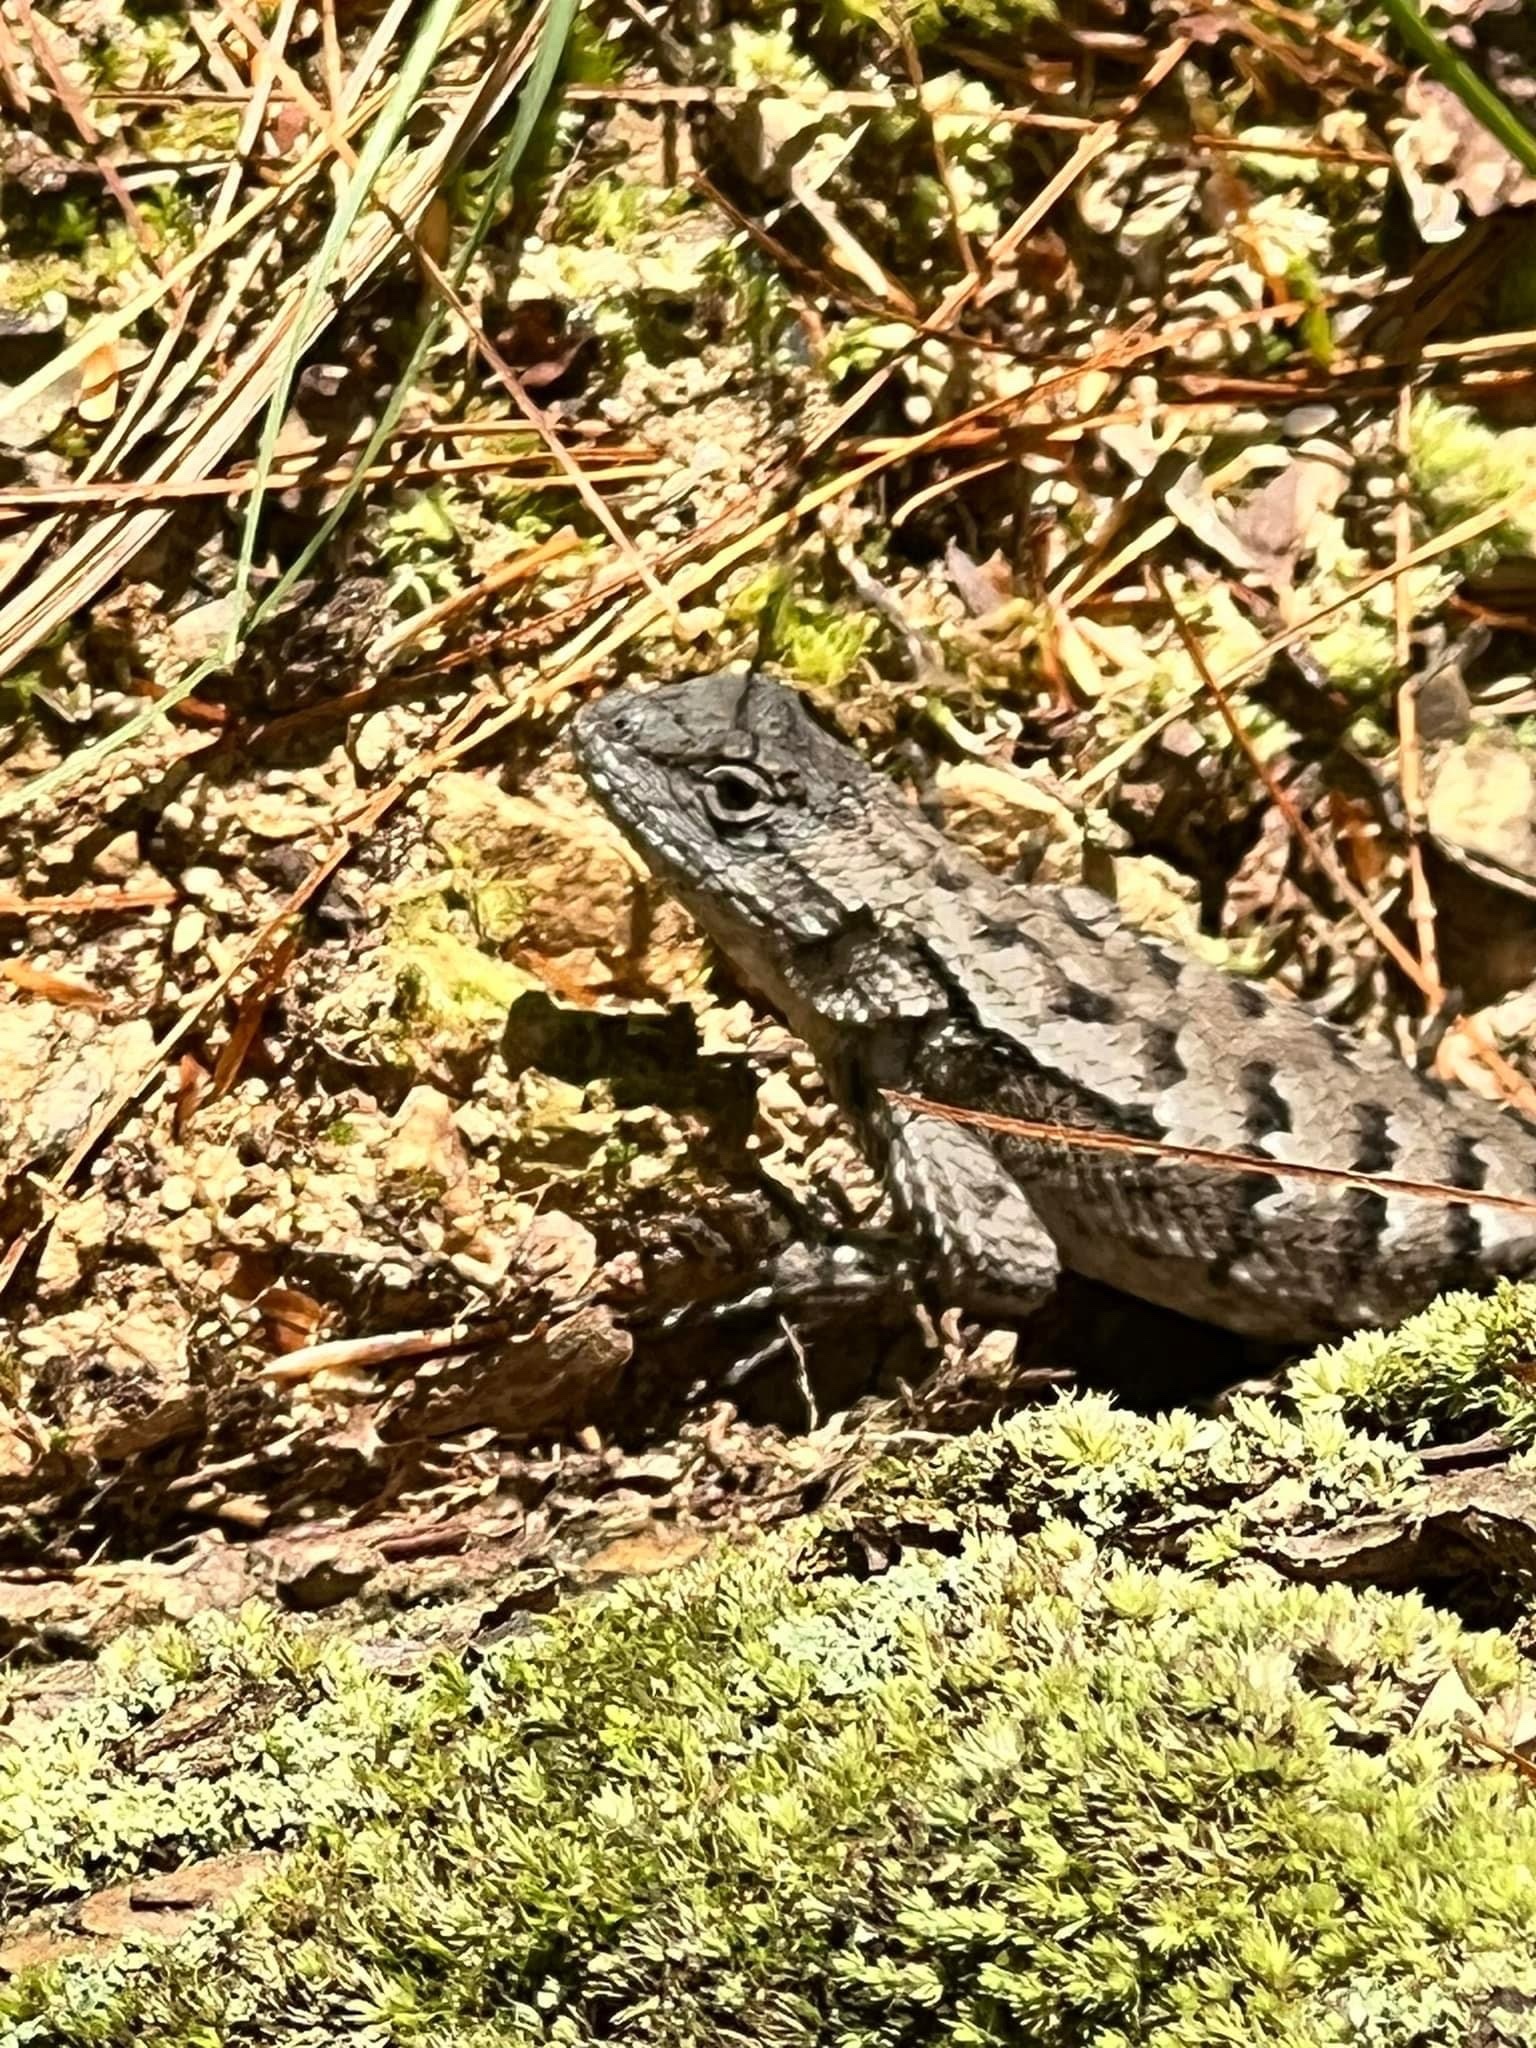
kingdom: Animalia
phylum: Chordata
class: Squamata
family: Phrynosomatidae
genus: Sceloporus
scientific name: Sceloporus undulatus
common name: Eastern fence lizard
